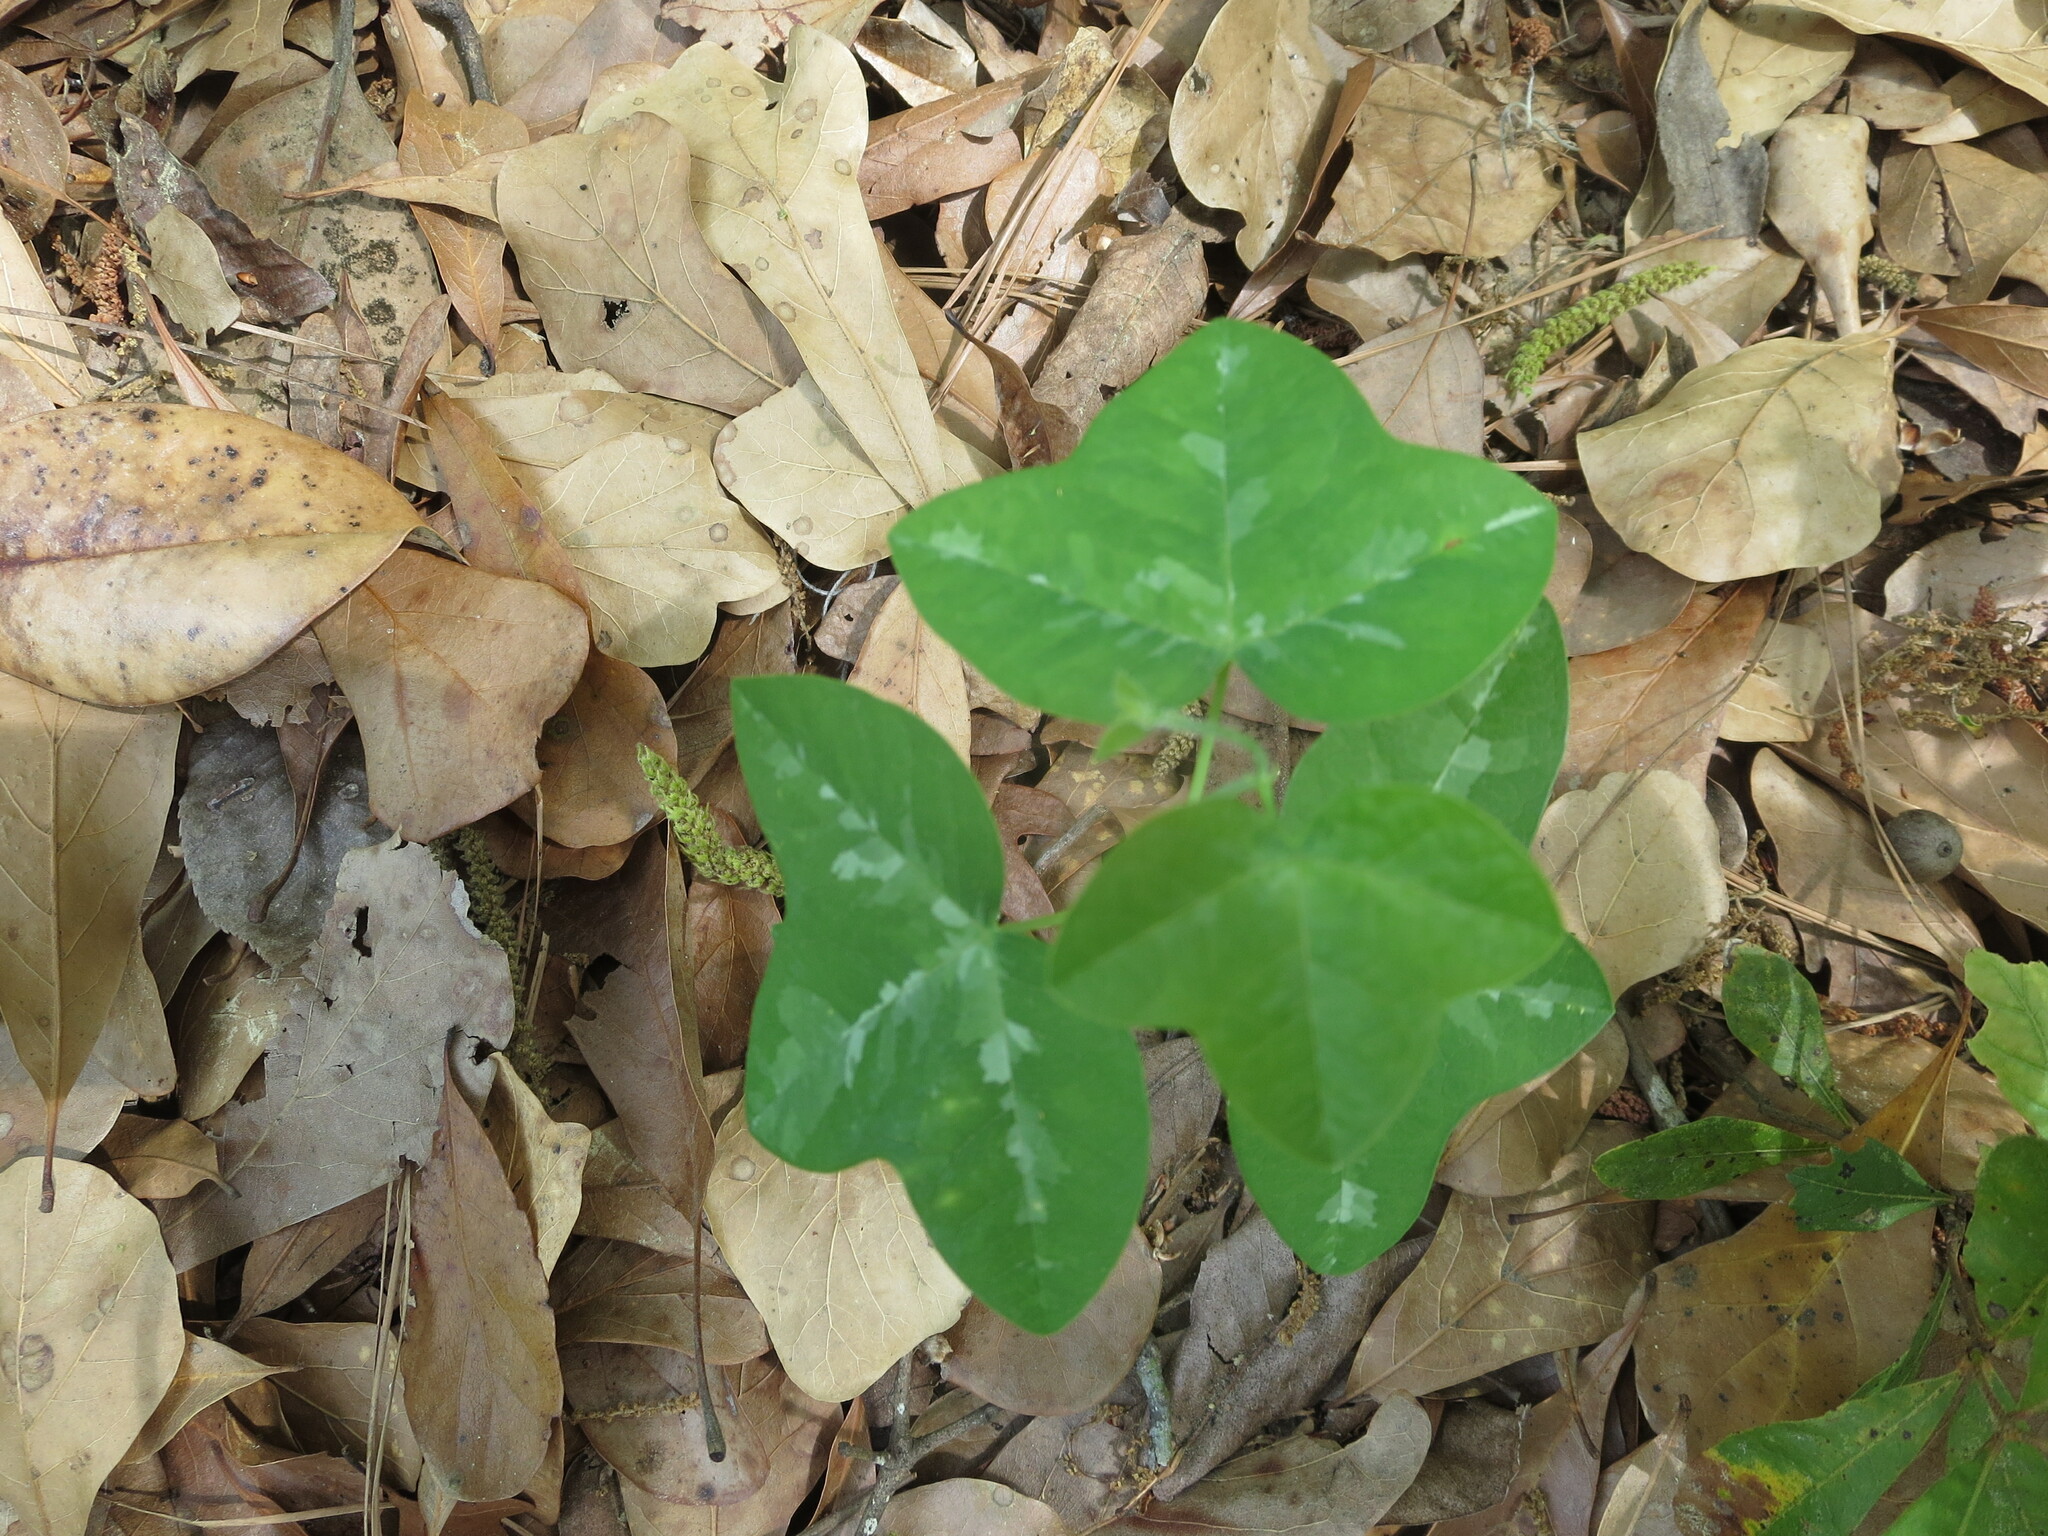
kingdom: Plantae
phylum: Tracheophyta
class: Magnoliopsida
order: Malpighiales
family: Passifloraceae
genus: Passiflora
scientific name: Passiflora lutea
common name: Yellow passionflower
